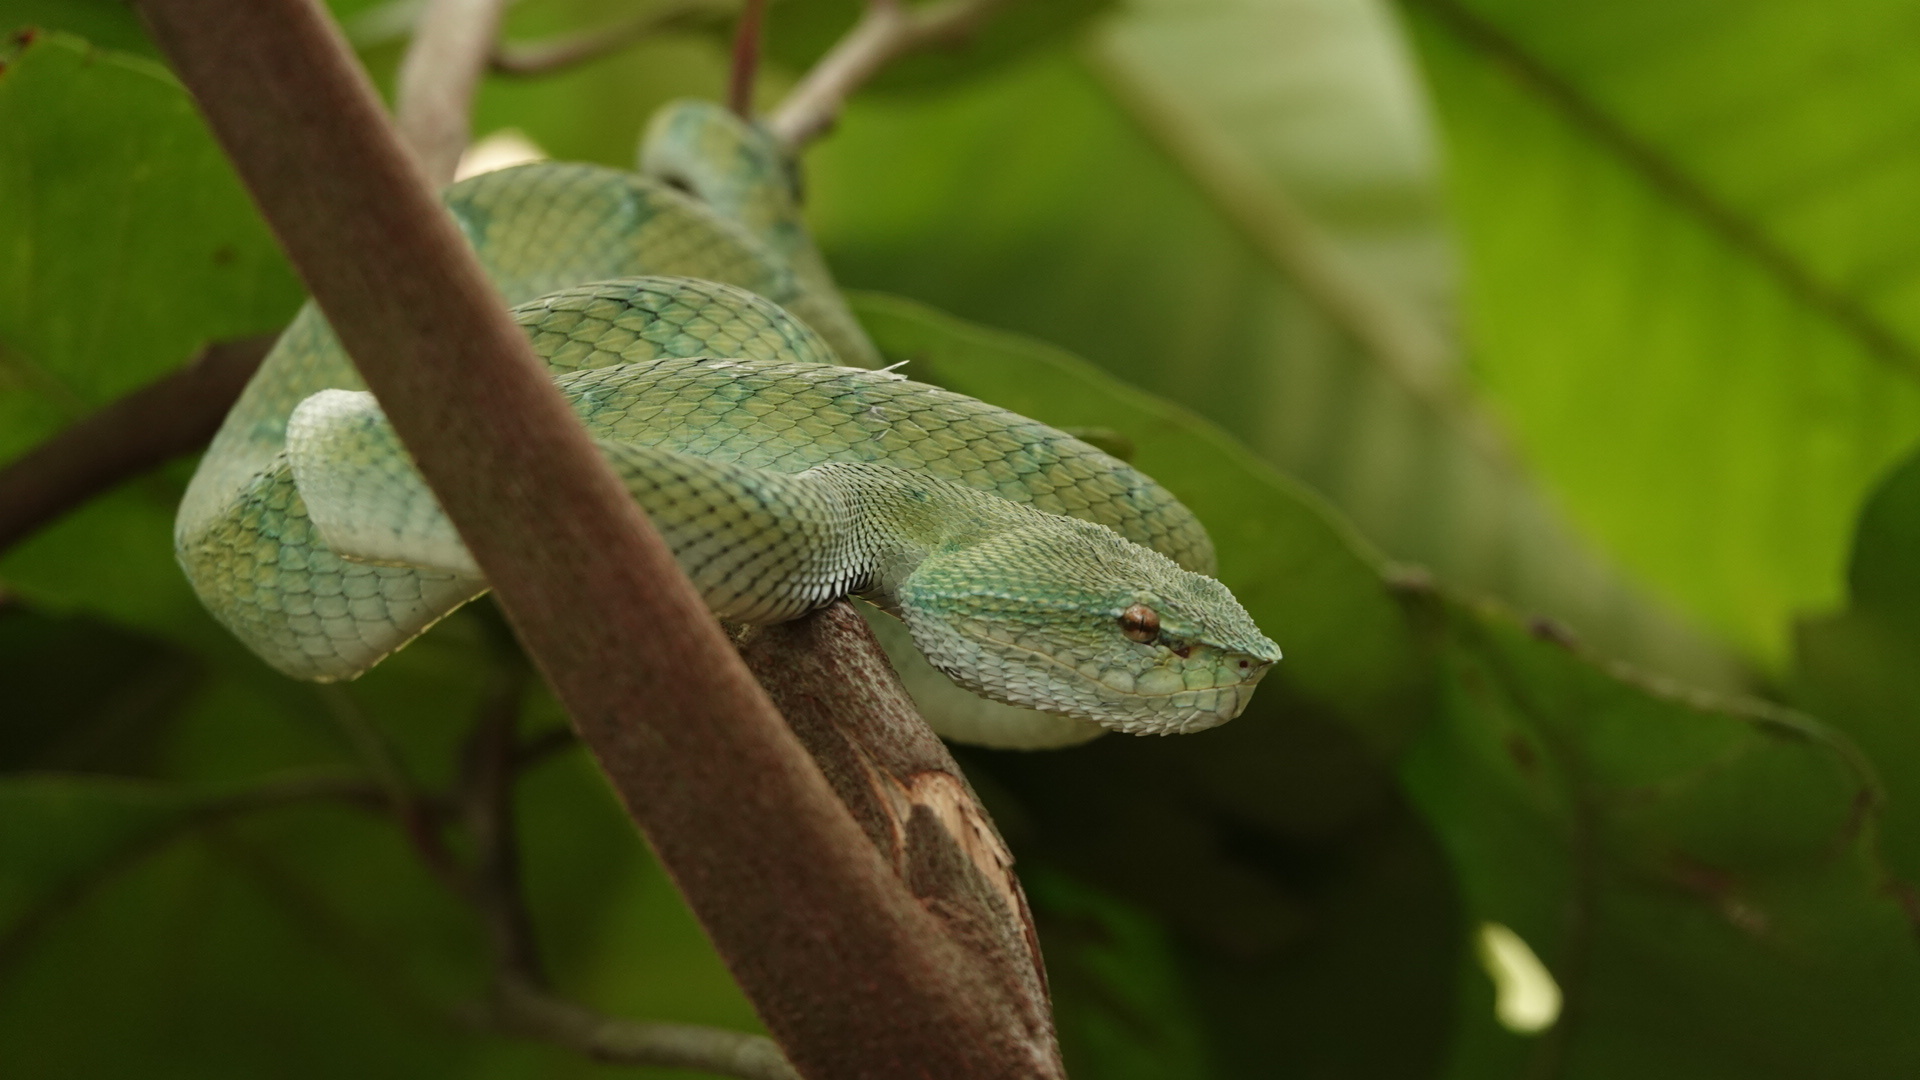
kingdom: Animalia
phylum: Chordata
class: Squamata
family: Viperidae
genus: Tropidolaemus
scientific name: Tropidolaemus subannulatus
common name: North philippine temple pitviper
